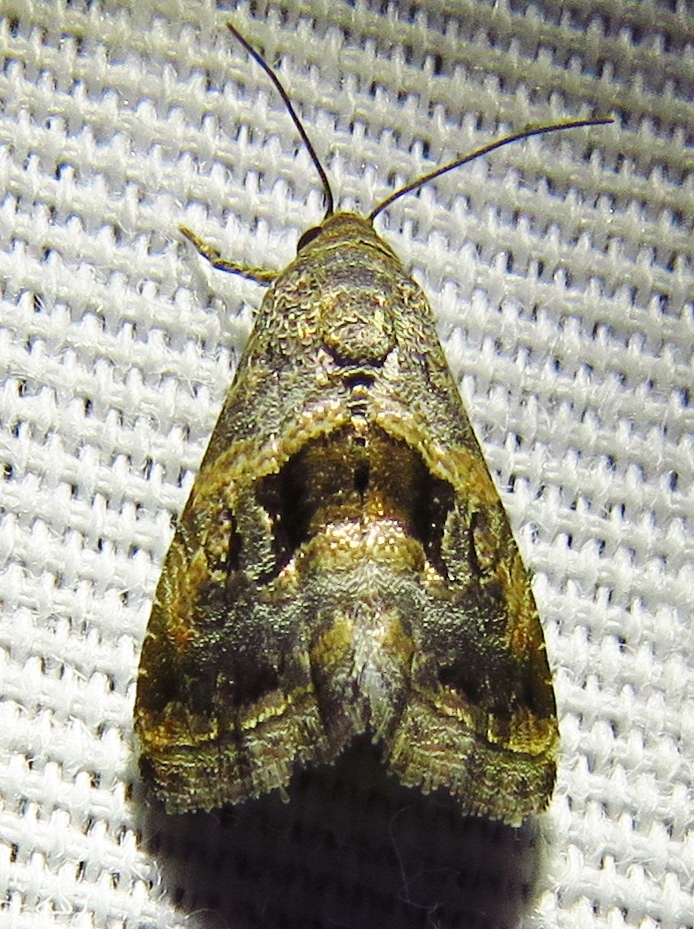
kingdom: Animalia
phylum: Arthropoda
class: Insecta
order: Lepidoptera
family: Noctuidae
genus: Tripudia
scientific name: Tripudia quadrifera
